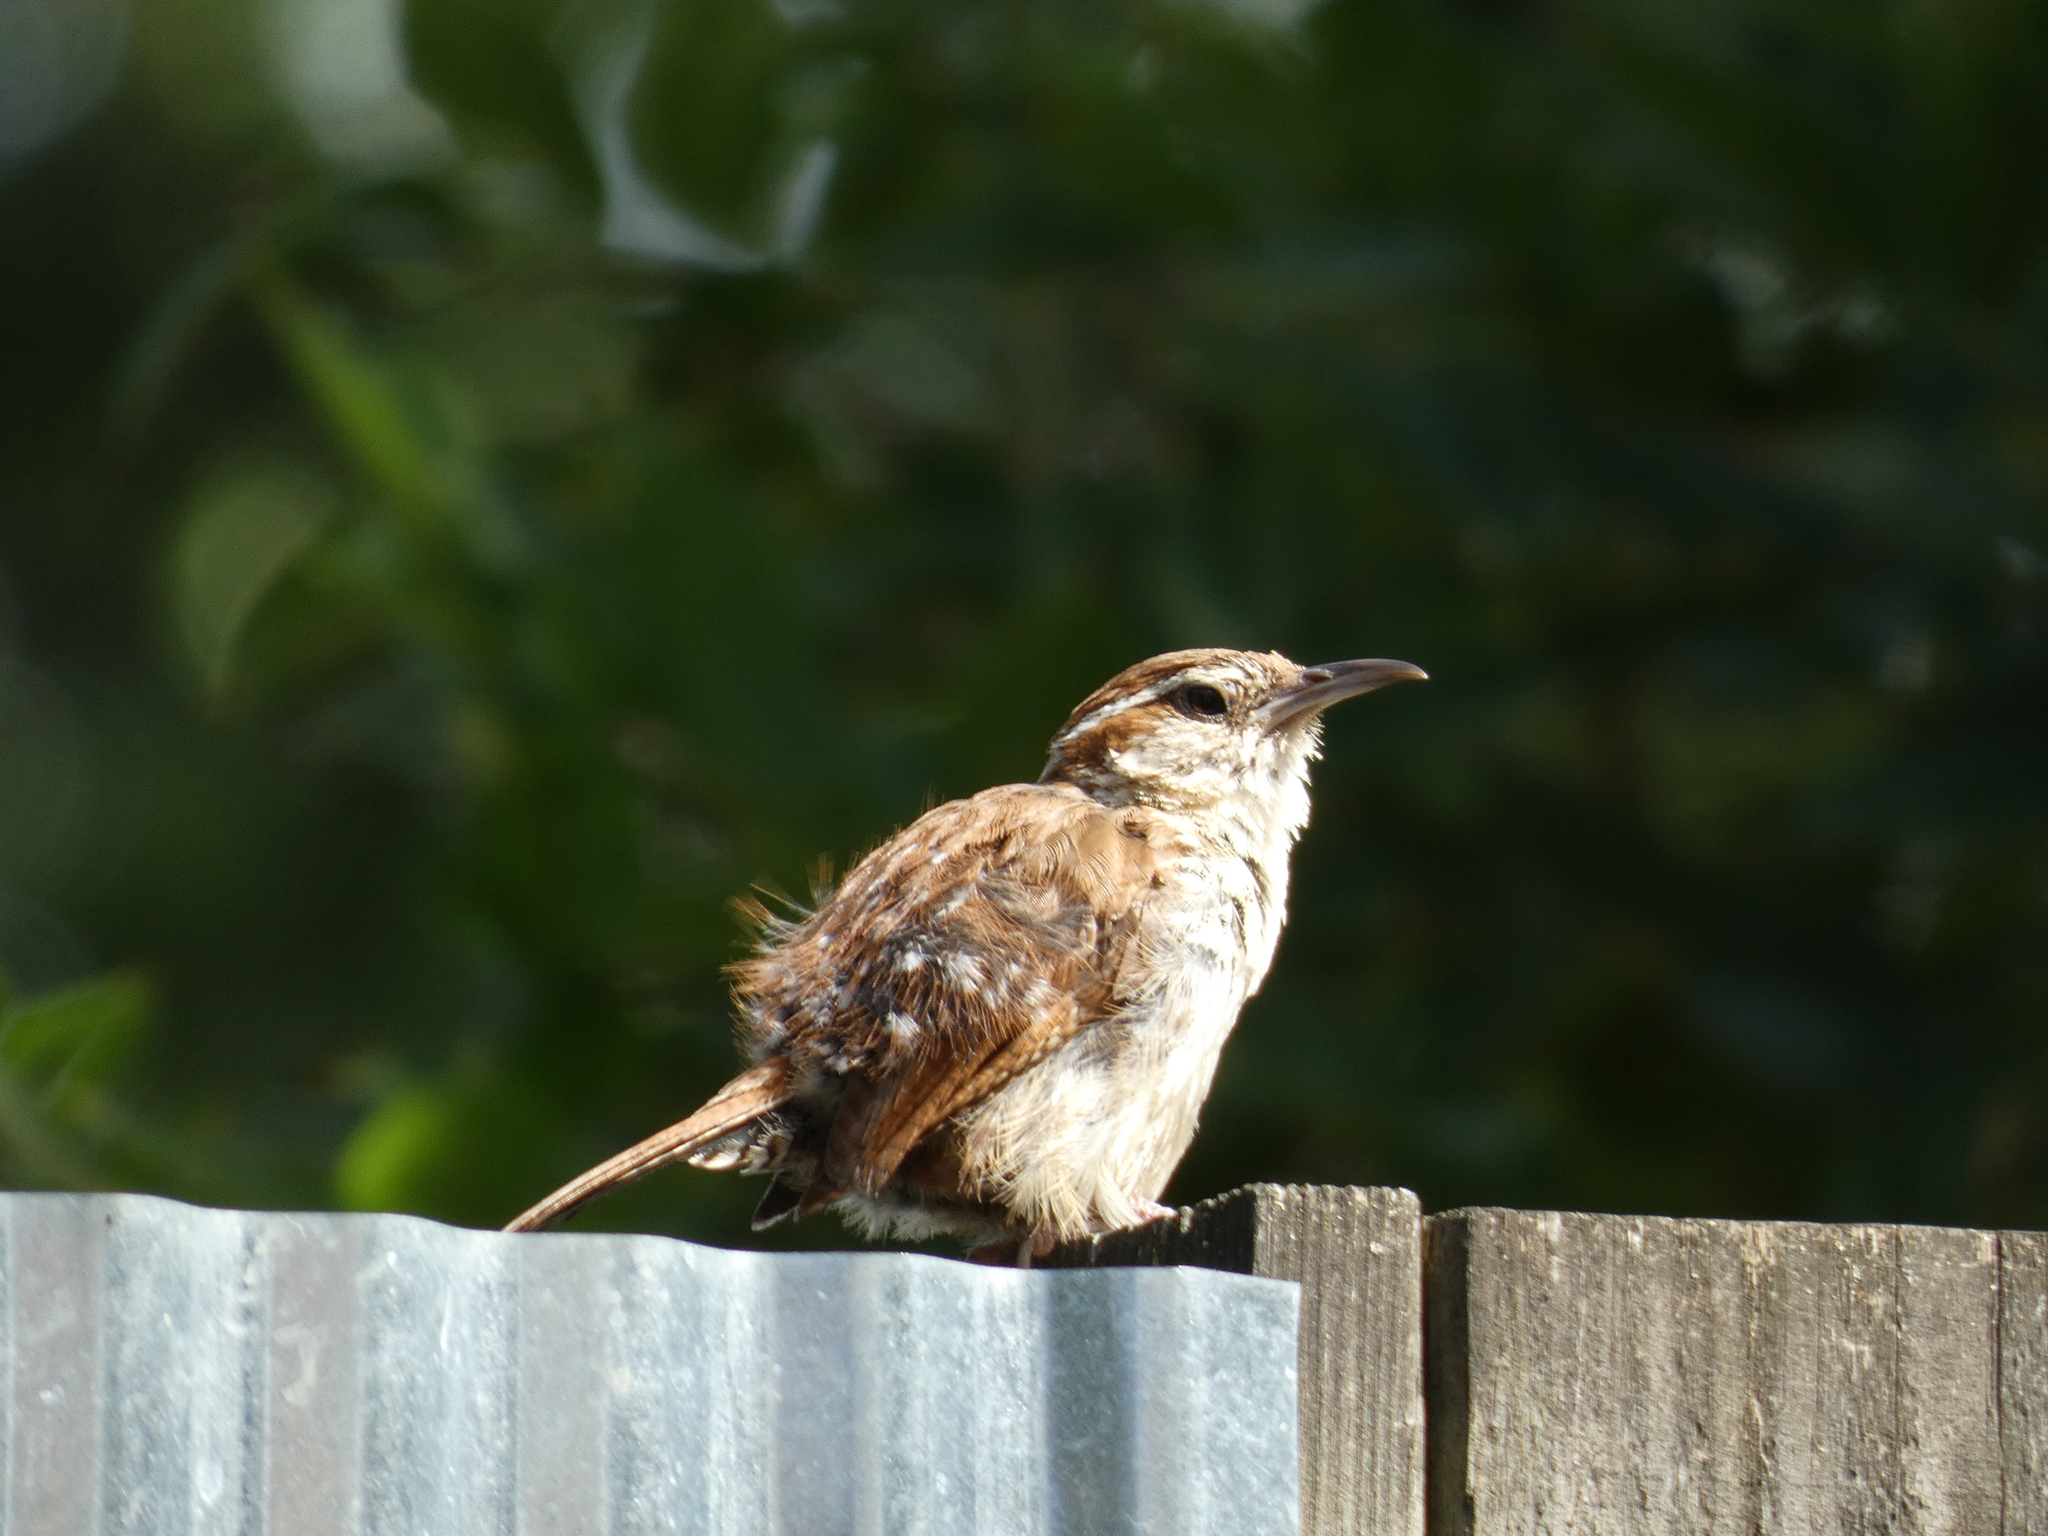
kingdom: Animalia
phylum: Chordata
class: Aves
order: Passeriformes
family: Troglodytidae
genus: Thryothorus
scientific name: Thryothorus ludovicianus
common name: Carolina wren
